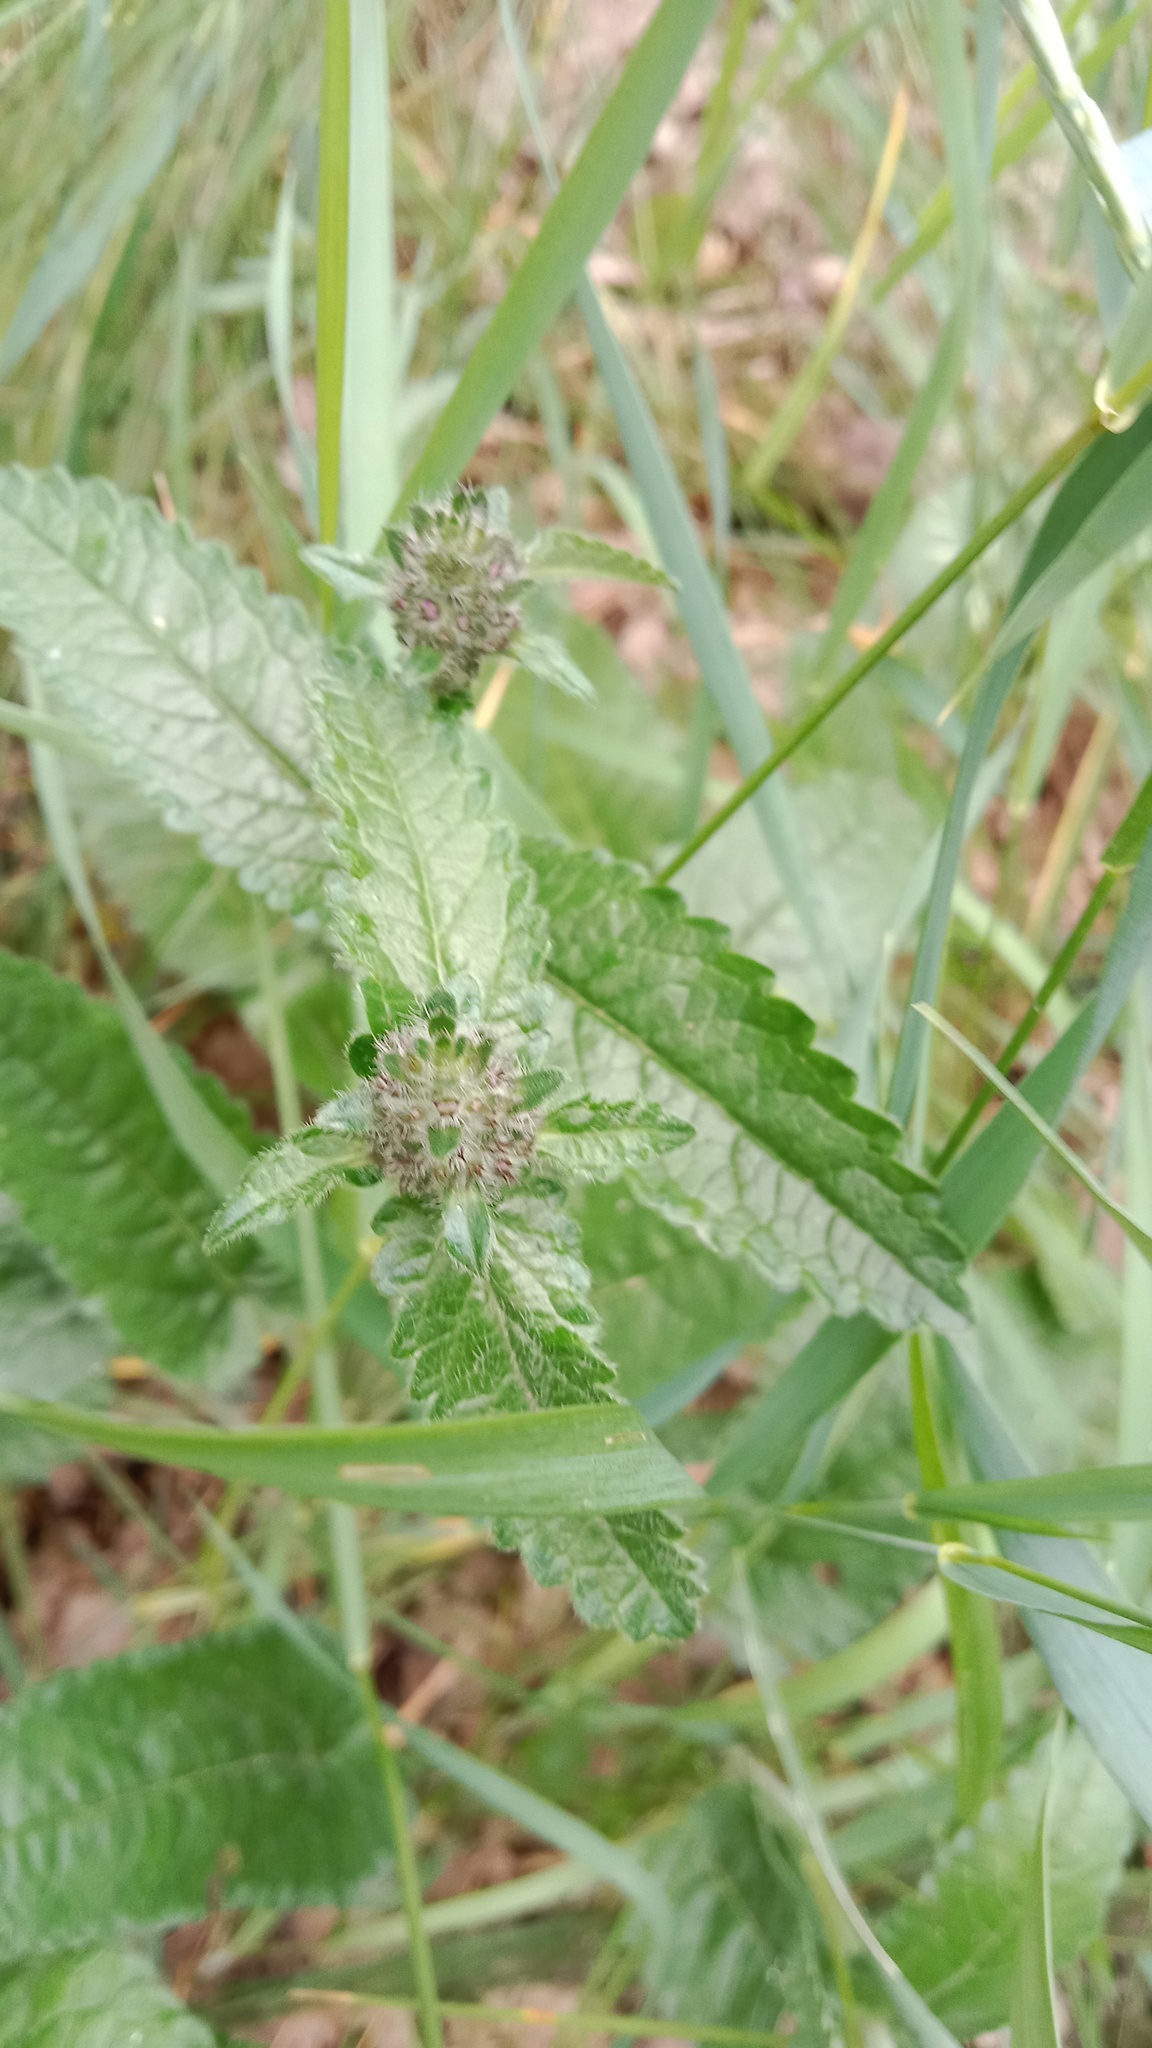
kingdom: Plantae
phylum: Tracheophyta
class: Magnoliopsida
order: Lamiales
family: Lamiaceae
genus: Betonica
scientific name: Betonica officinalis
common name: Bishop's-wort
